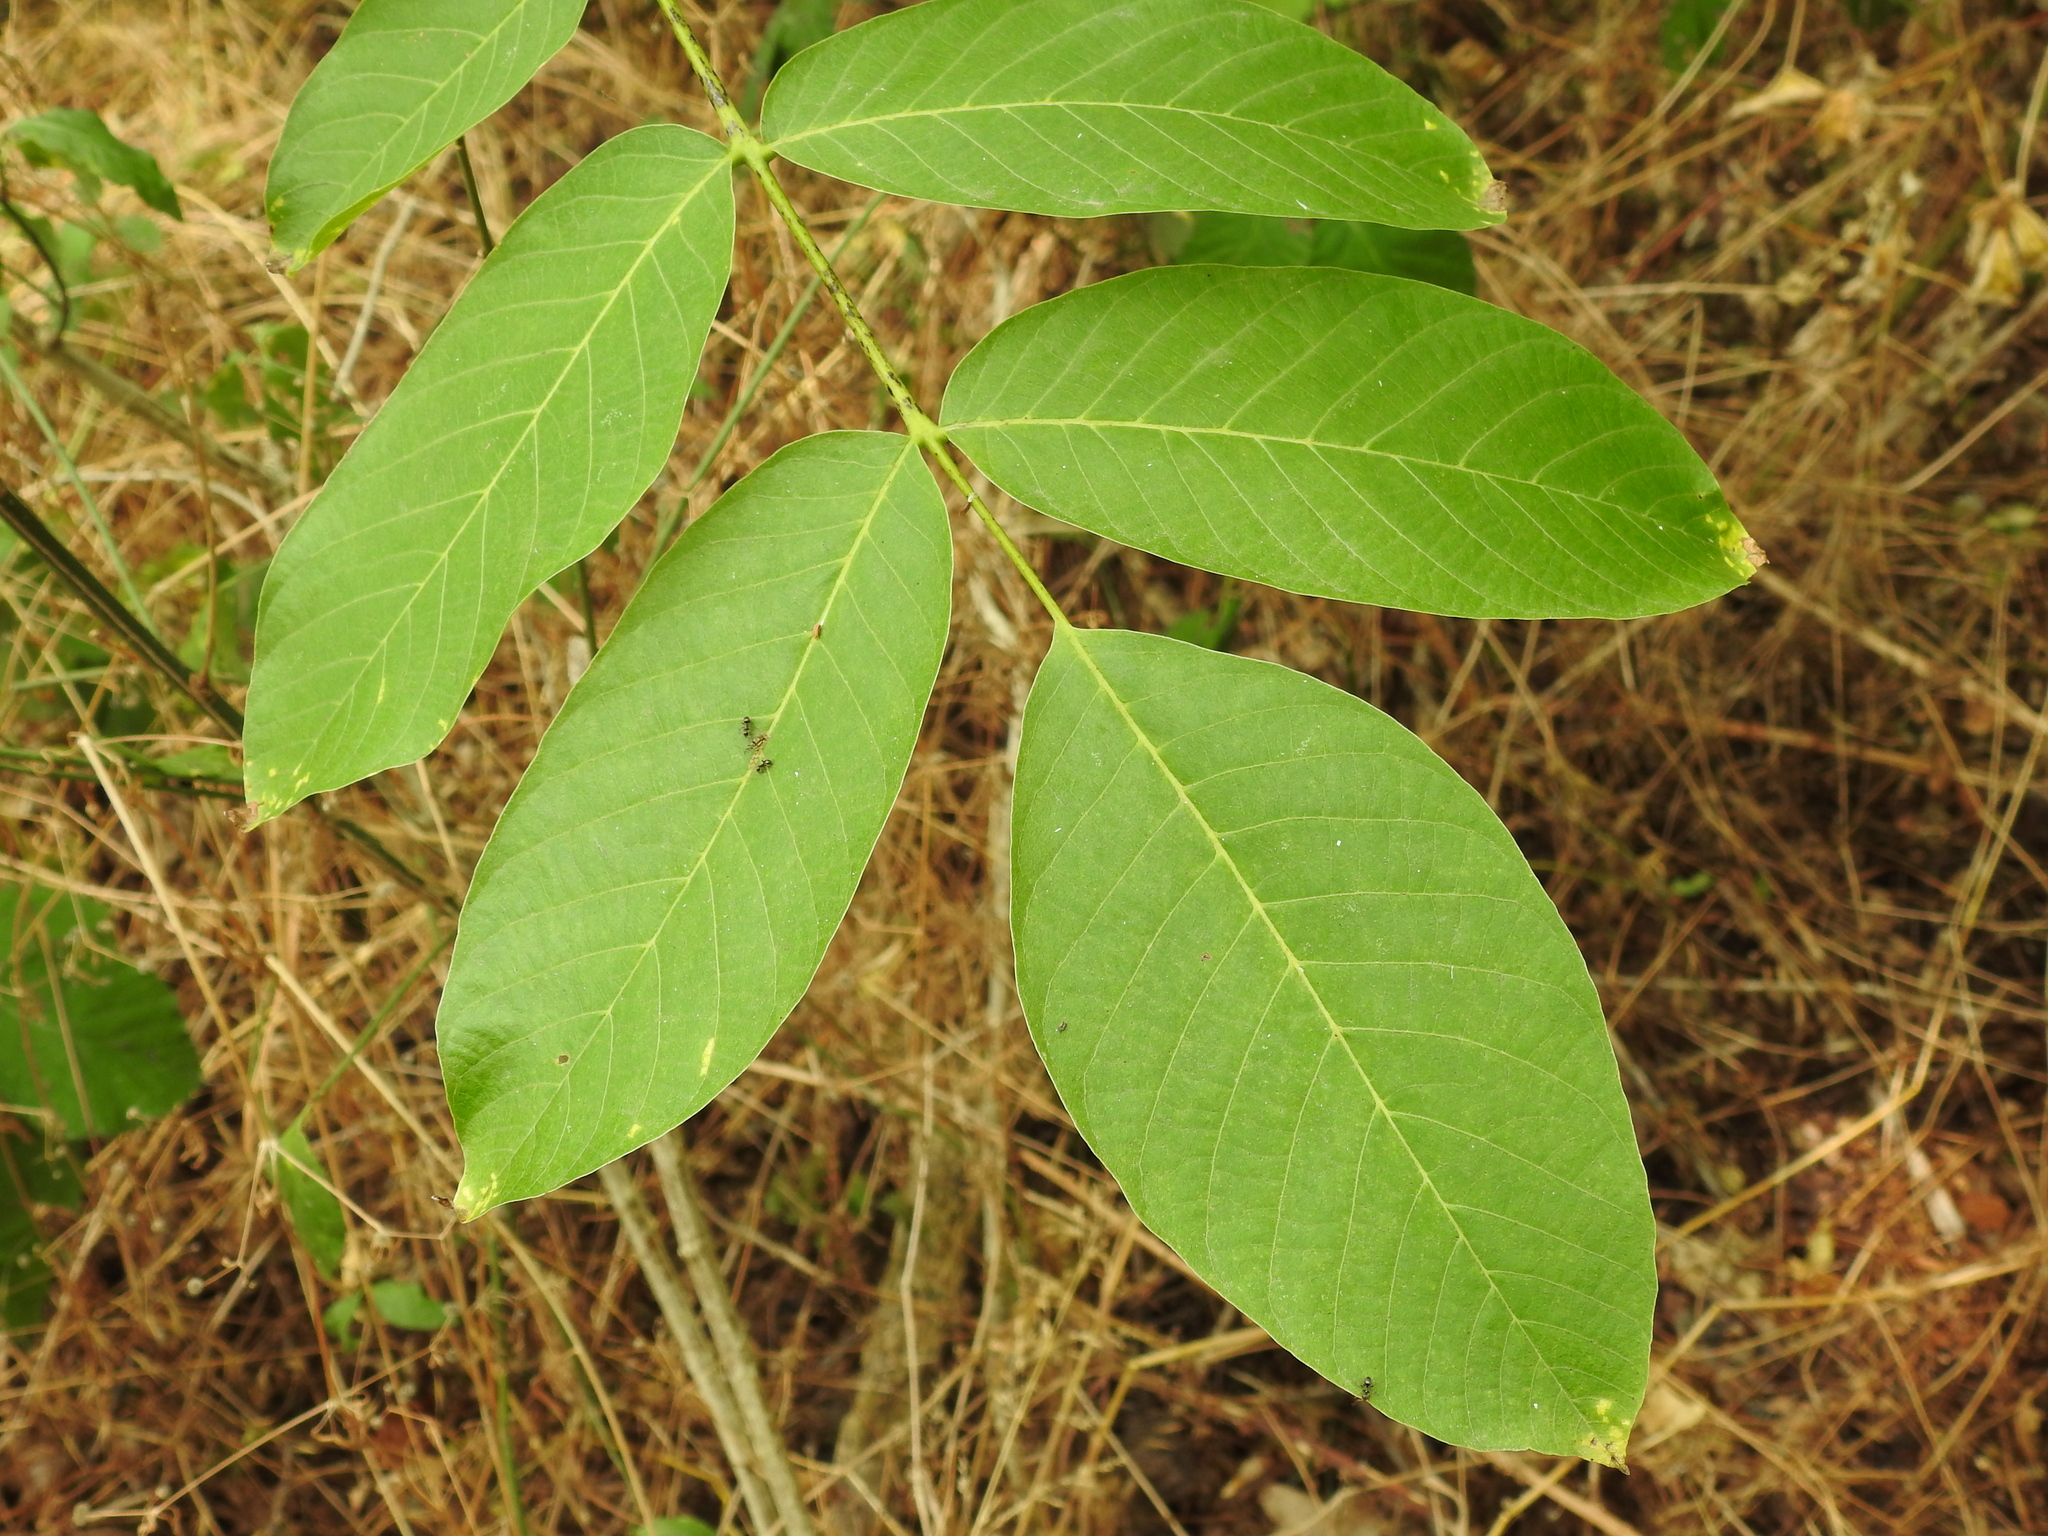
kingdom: Plantae
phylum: Tracheophyta
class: Magnoliopsida
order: Fagales
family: Juglandaceae
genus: Juglans
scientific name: Juglans regia
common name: Walnut
